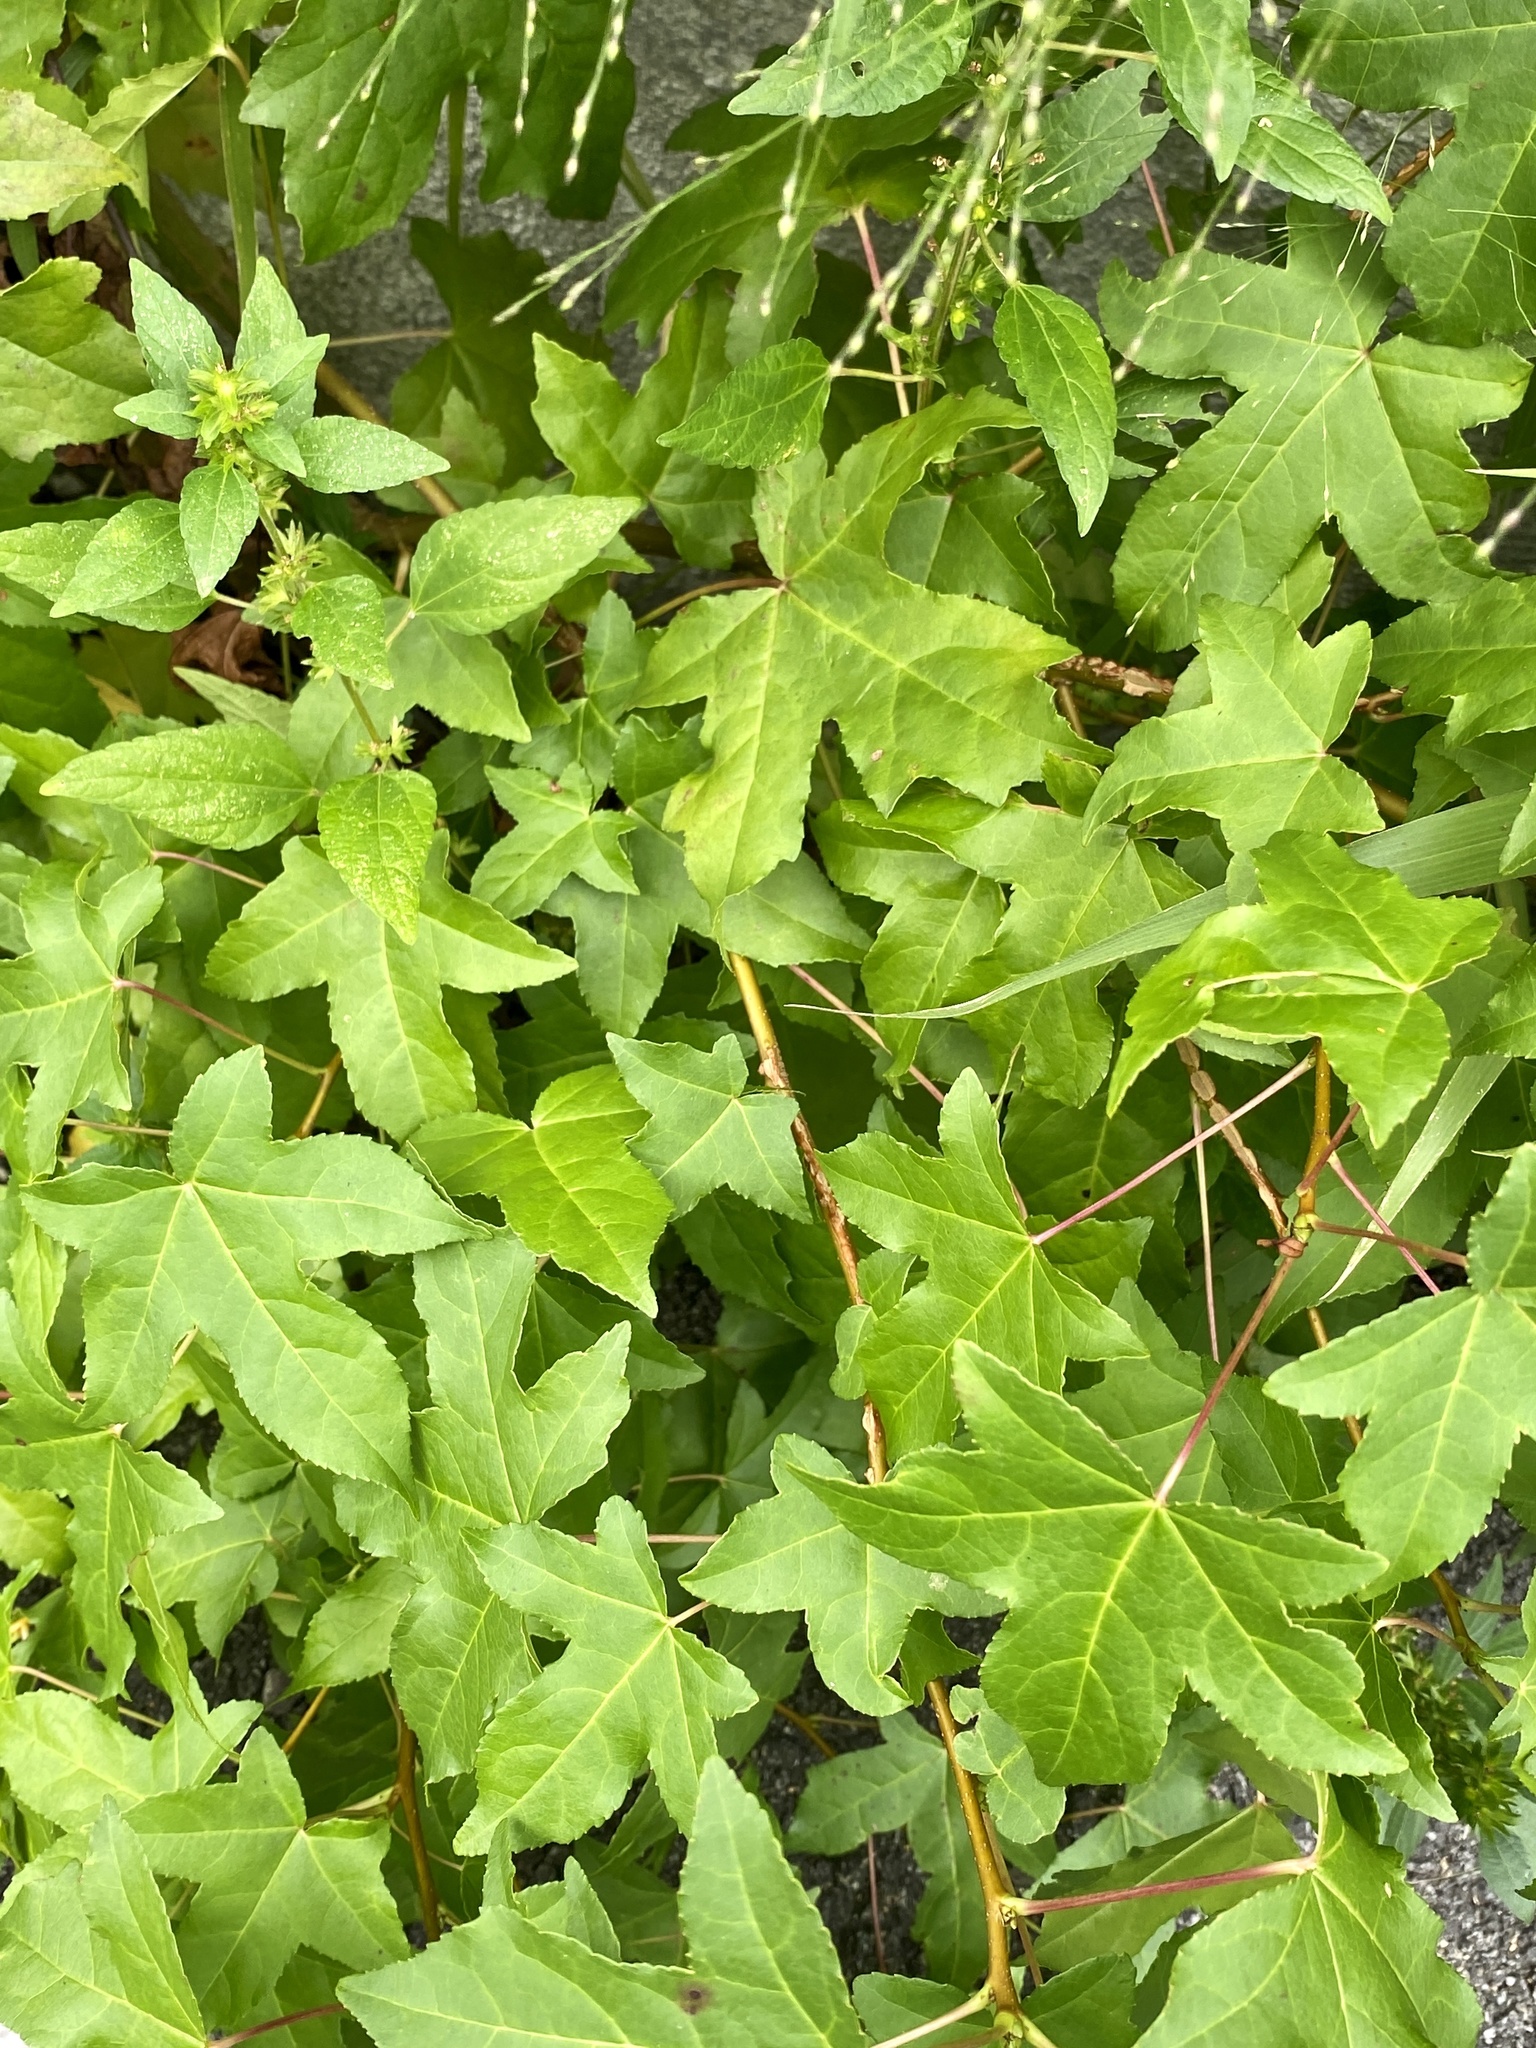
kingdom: Plantae
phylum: Tracheophyta
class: Magnoliopsida
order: Saxifragales
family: Altingiaceae
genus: Liquidambar
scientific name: Liquidambar styraciflua
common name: Sweet gum
